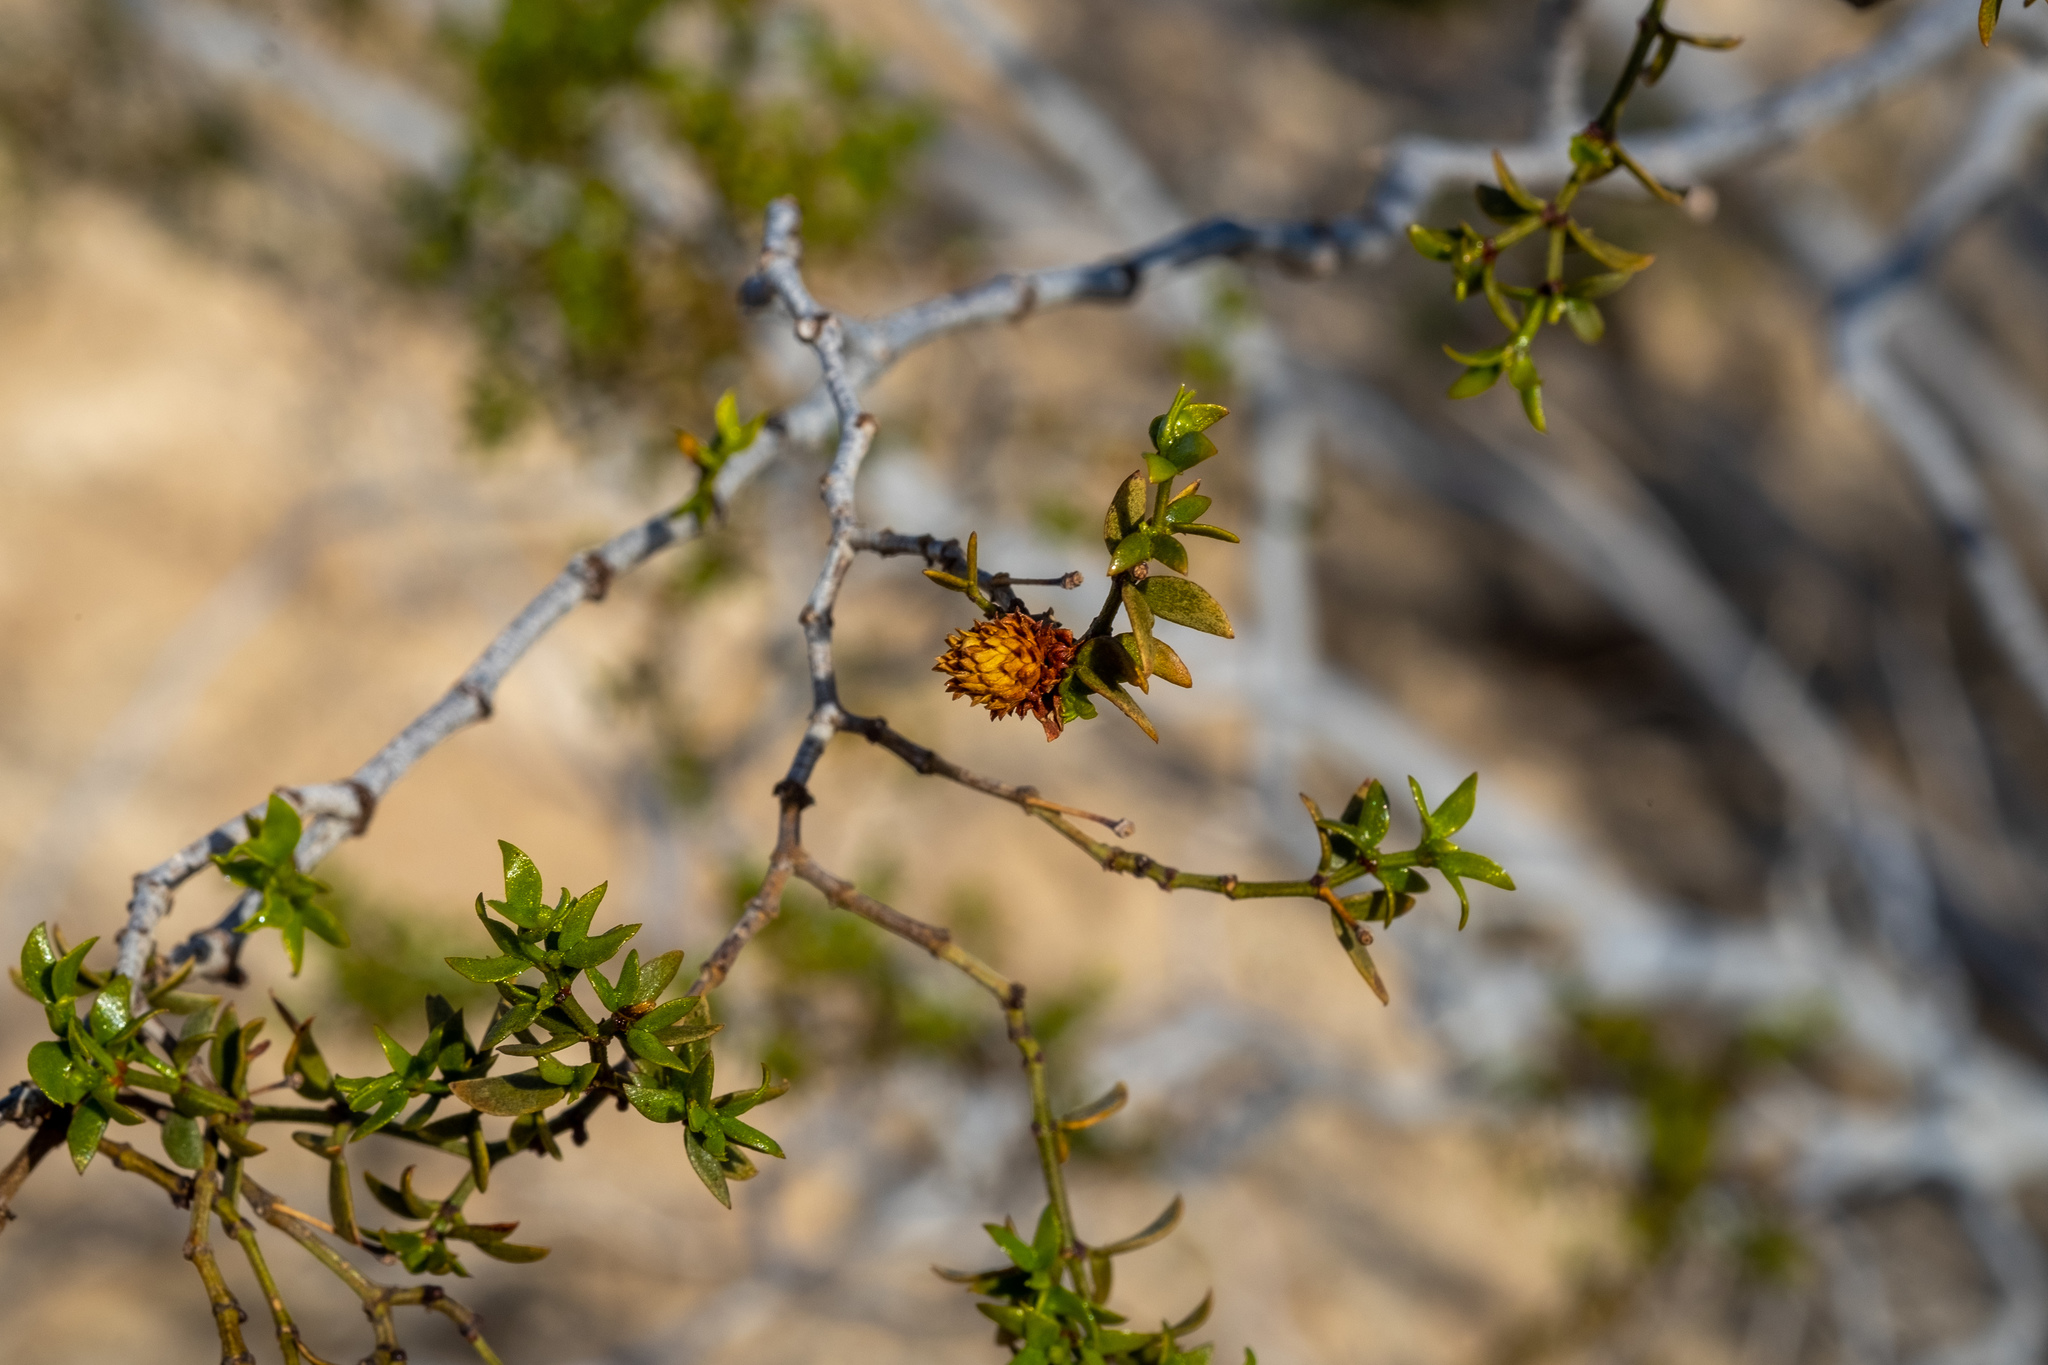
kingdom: Plantae
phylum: Tracheophyta
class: Magnoliopsida
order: Zygophyllales
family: Zygophyllaceae
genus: Larrea
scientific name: Larrea tridentata
